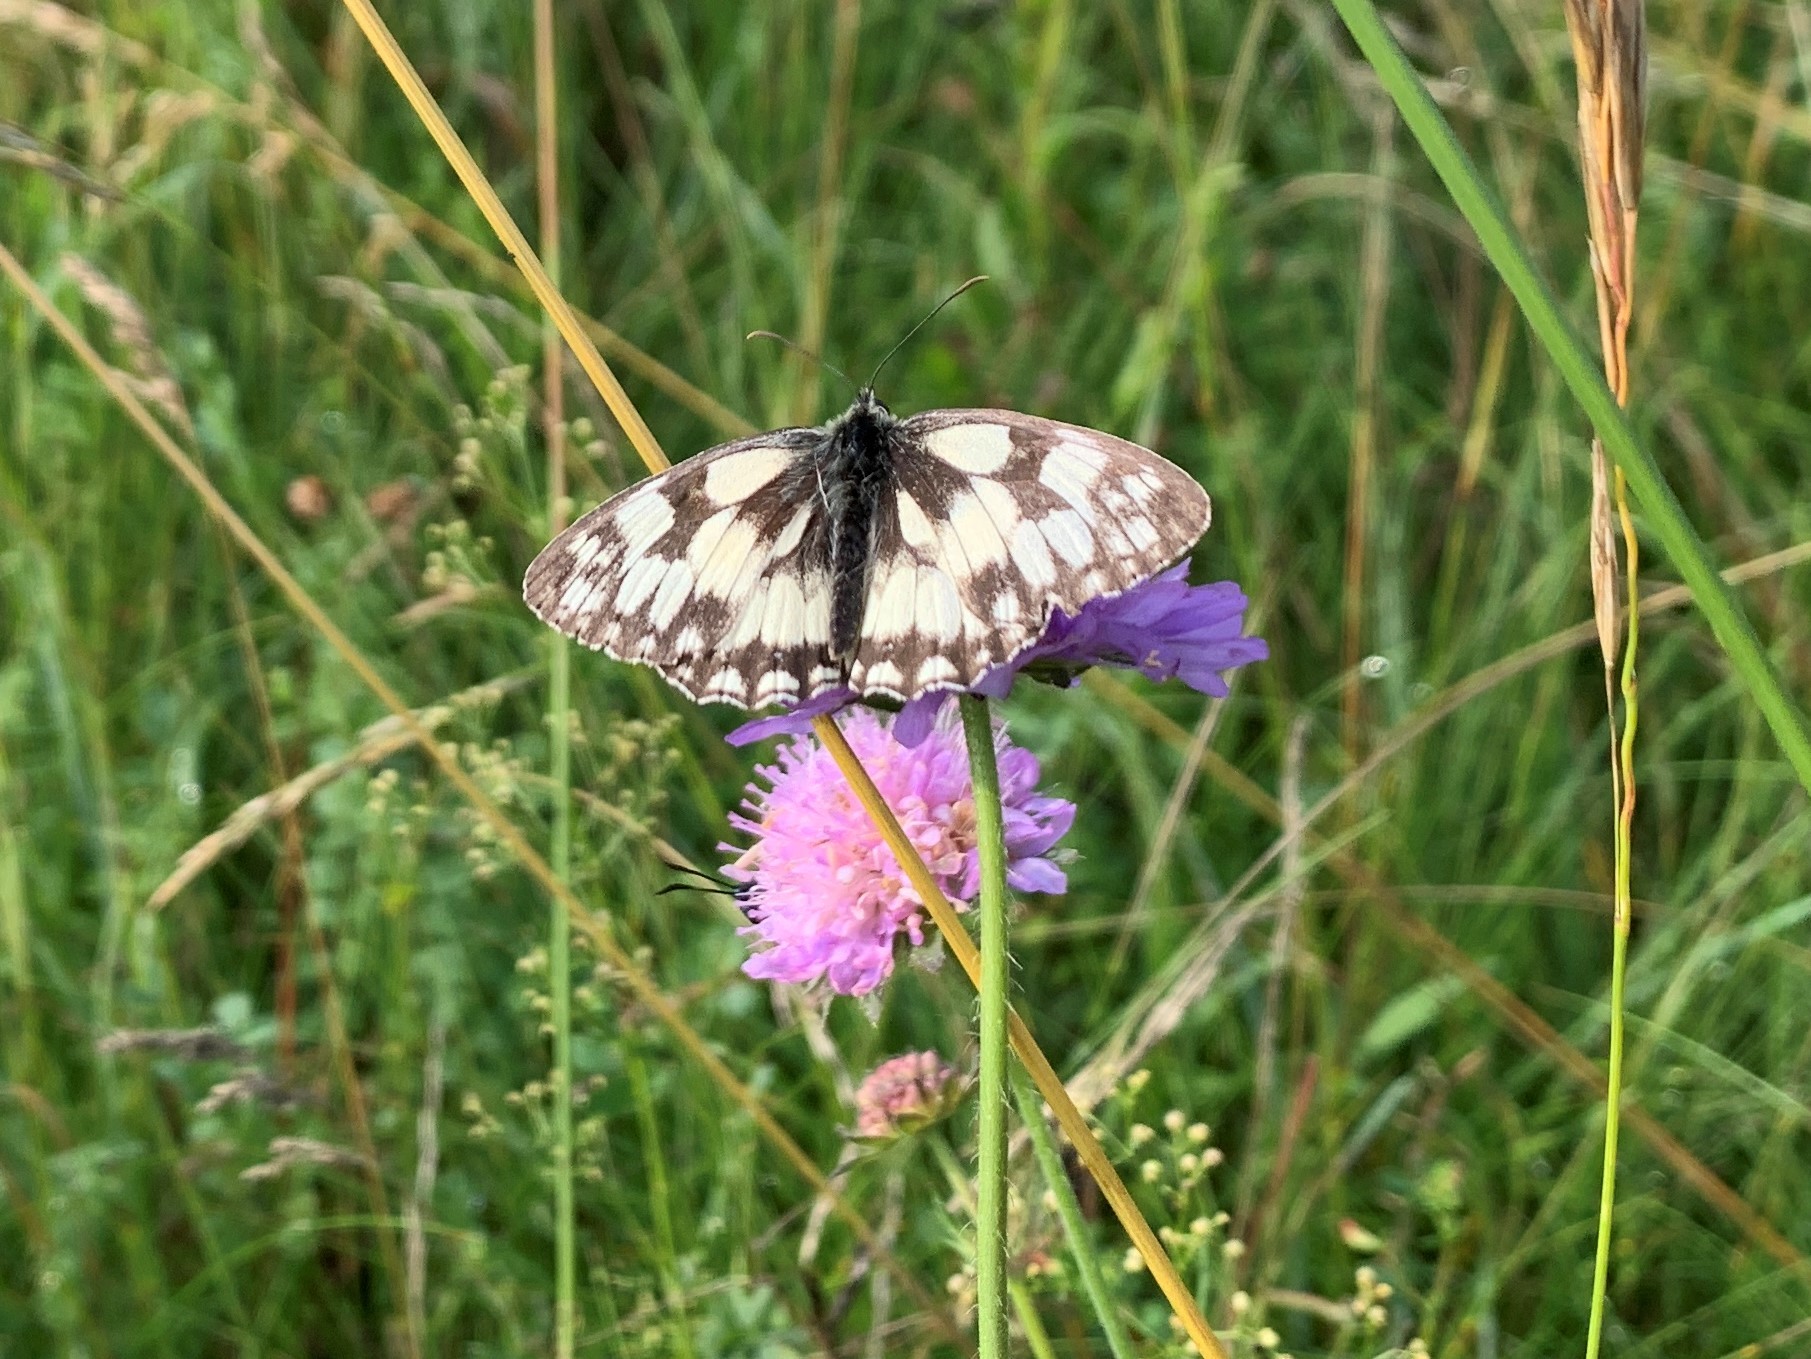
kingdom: Animalia
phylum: Arthropoda
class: Insecta
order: Lepidoptera
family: Nymphalidae
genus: Melanargia
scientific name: Melanargia galathea
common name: Marbled white
